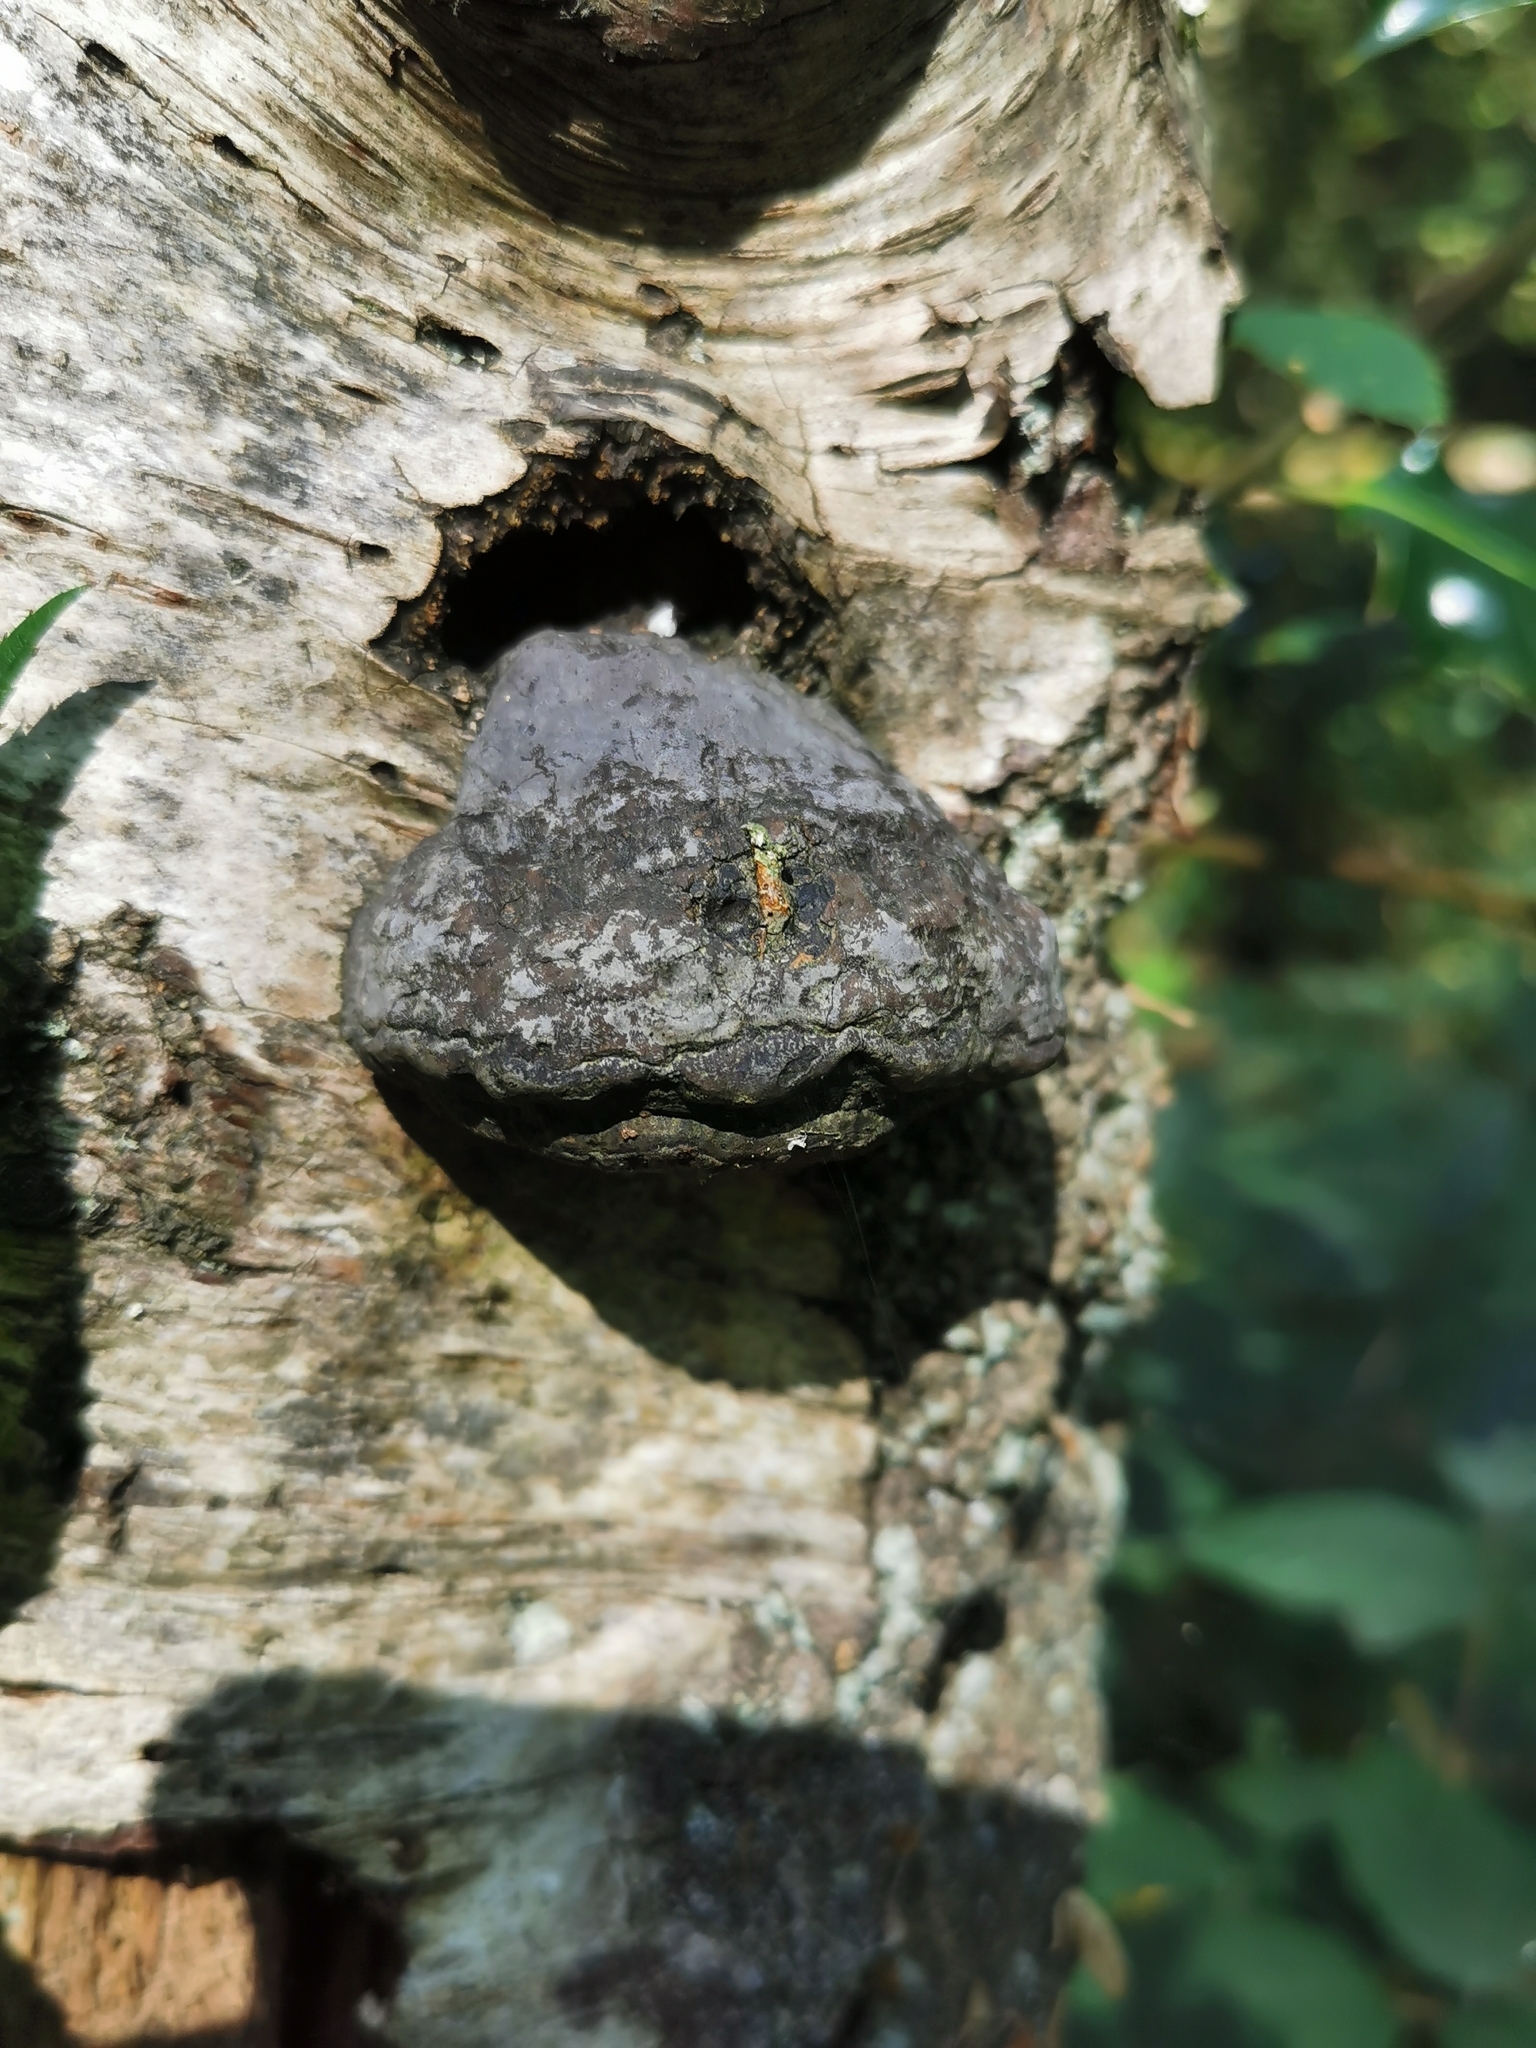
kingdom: Fungi
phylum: Basidiomycota
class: Agaricomycetes
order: Polyporales
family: Polyporaceae
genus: Fomes
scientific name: Fomes fomentarius
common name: Hoof fungus
